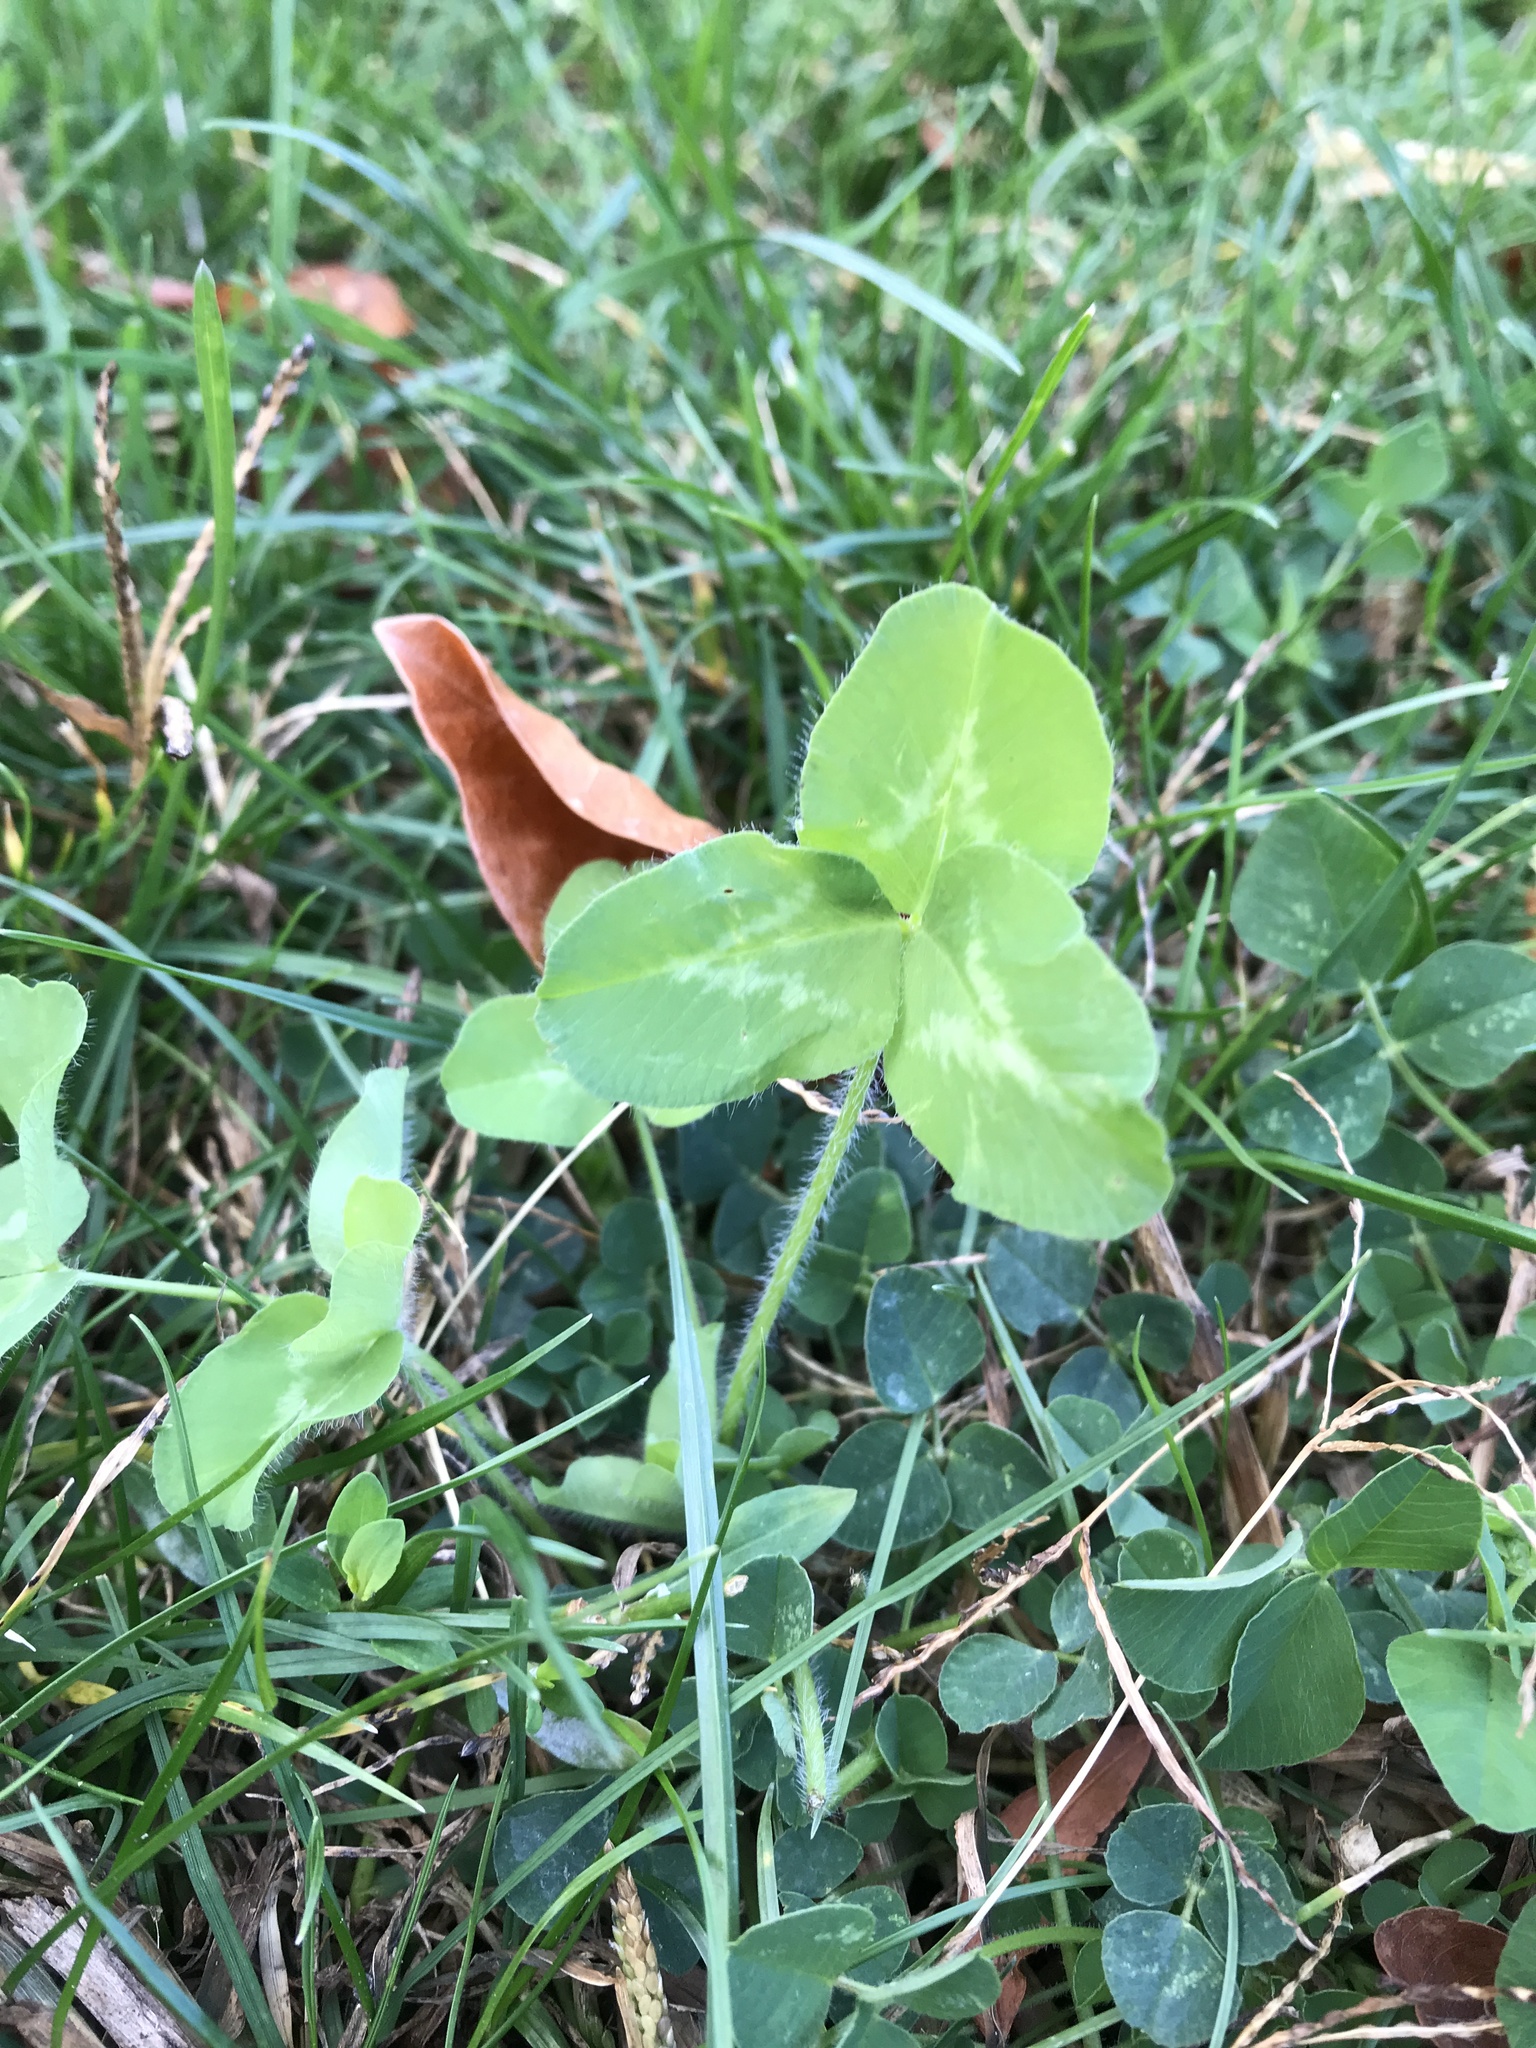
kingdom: Plantae
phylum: Tracheophyta
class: Magnoliopsida
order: Fabales
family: Fabaceae
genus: Trifolium
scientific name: Trifolium pratense
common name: Red clover
